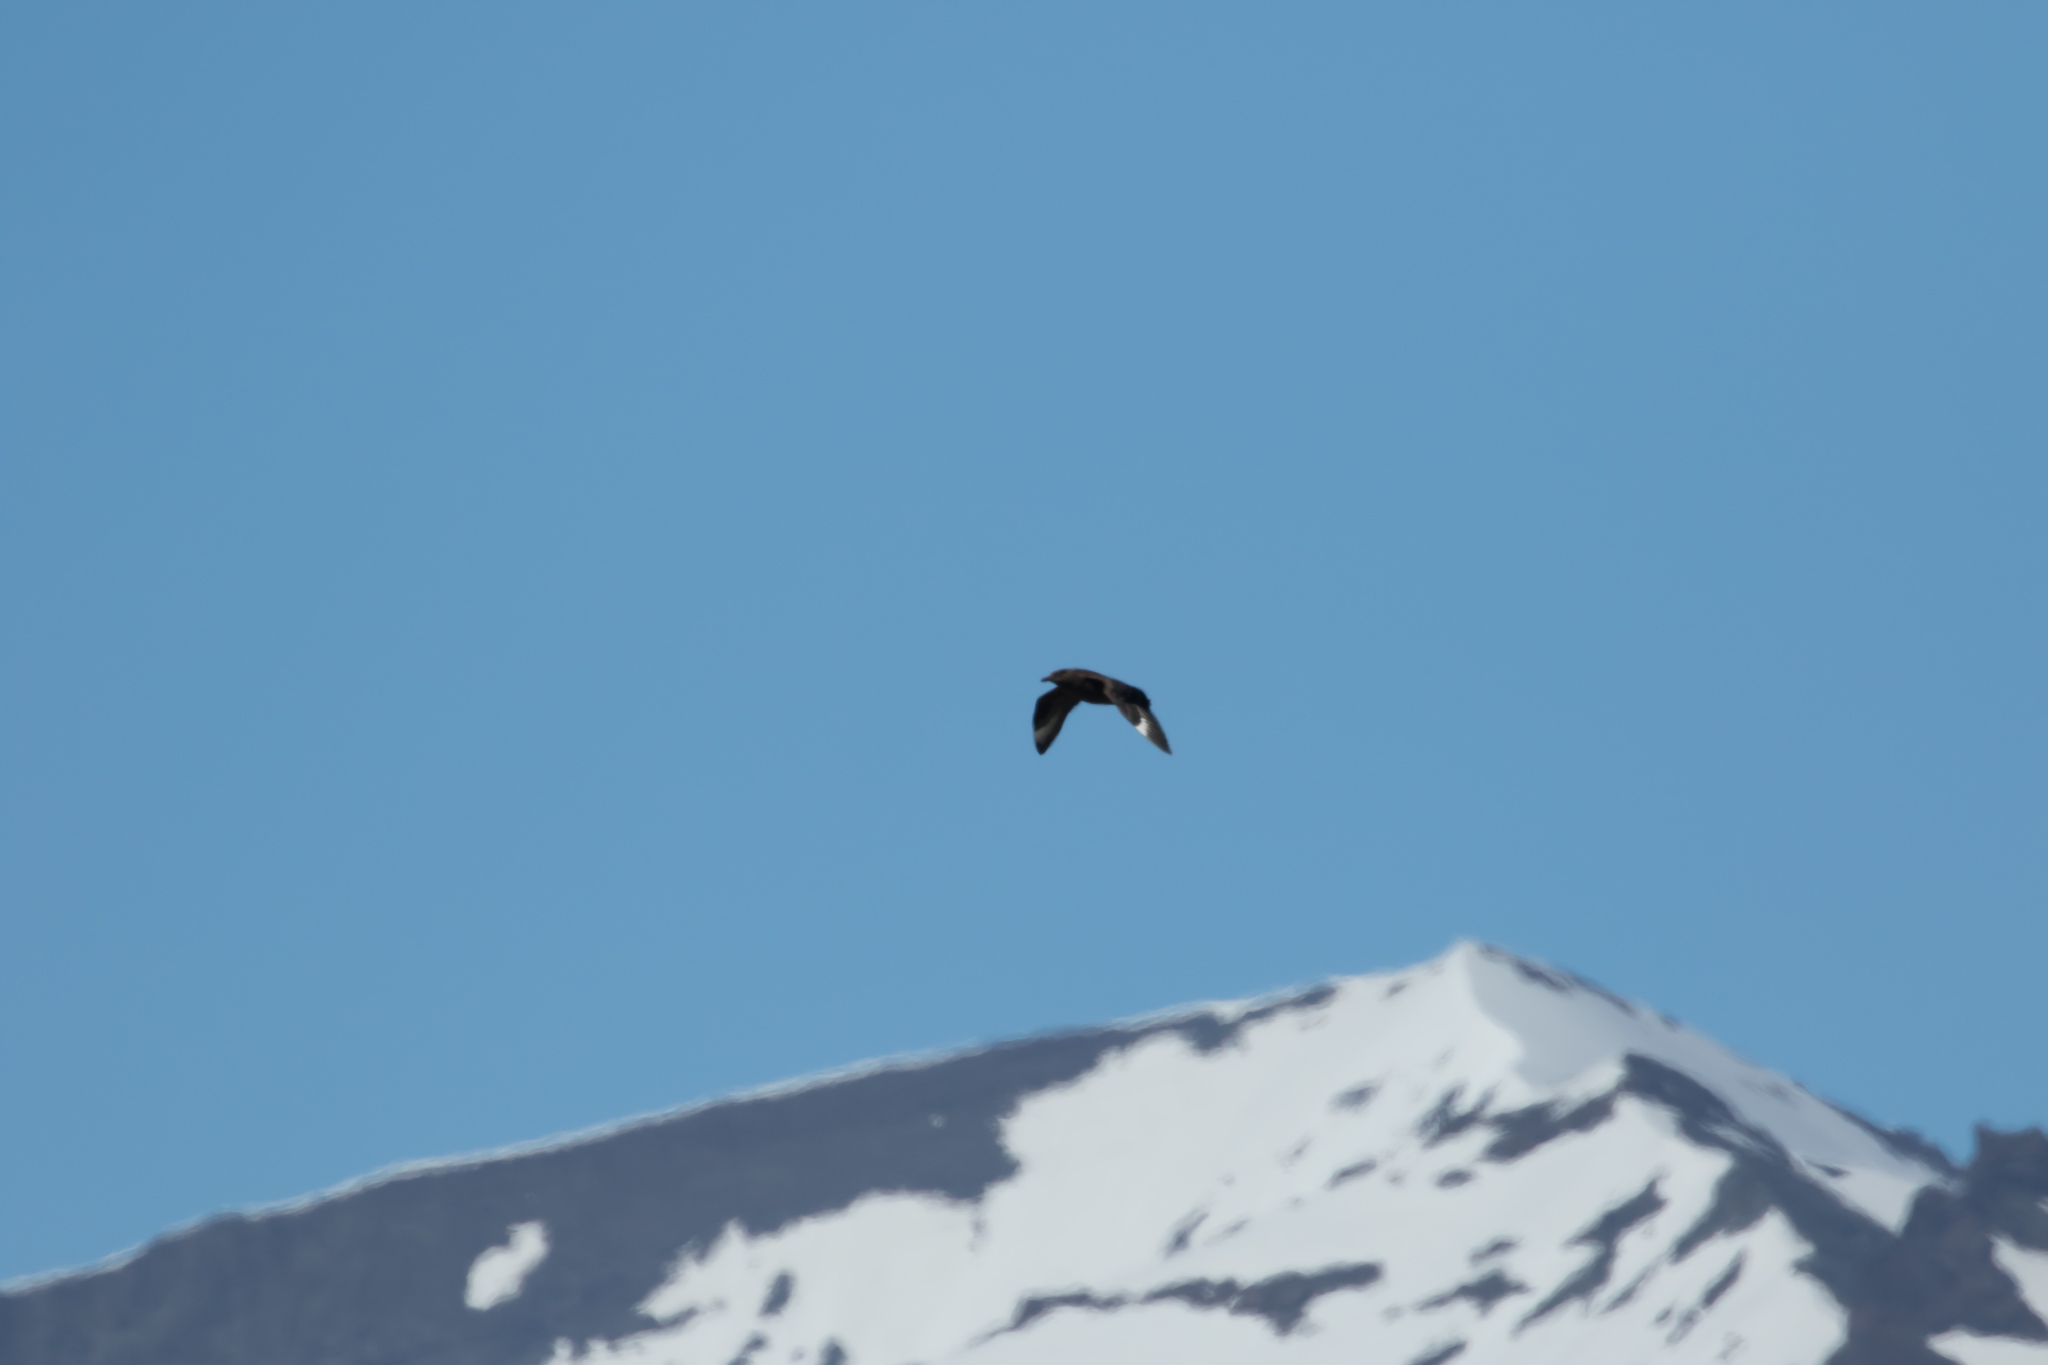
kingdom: Animalia
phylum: Chordata
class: Aves
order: Charadriiformes
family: Stercorariidae
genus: Stercorarius
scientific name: Stercorarius skua
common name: Great skua
